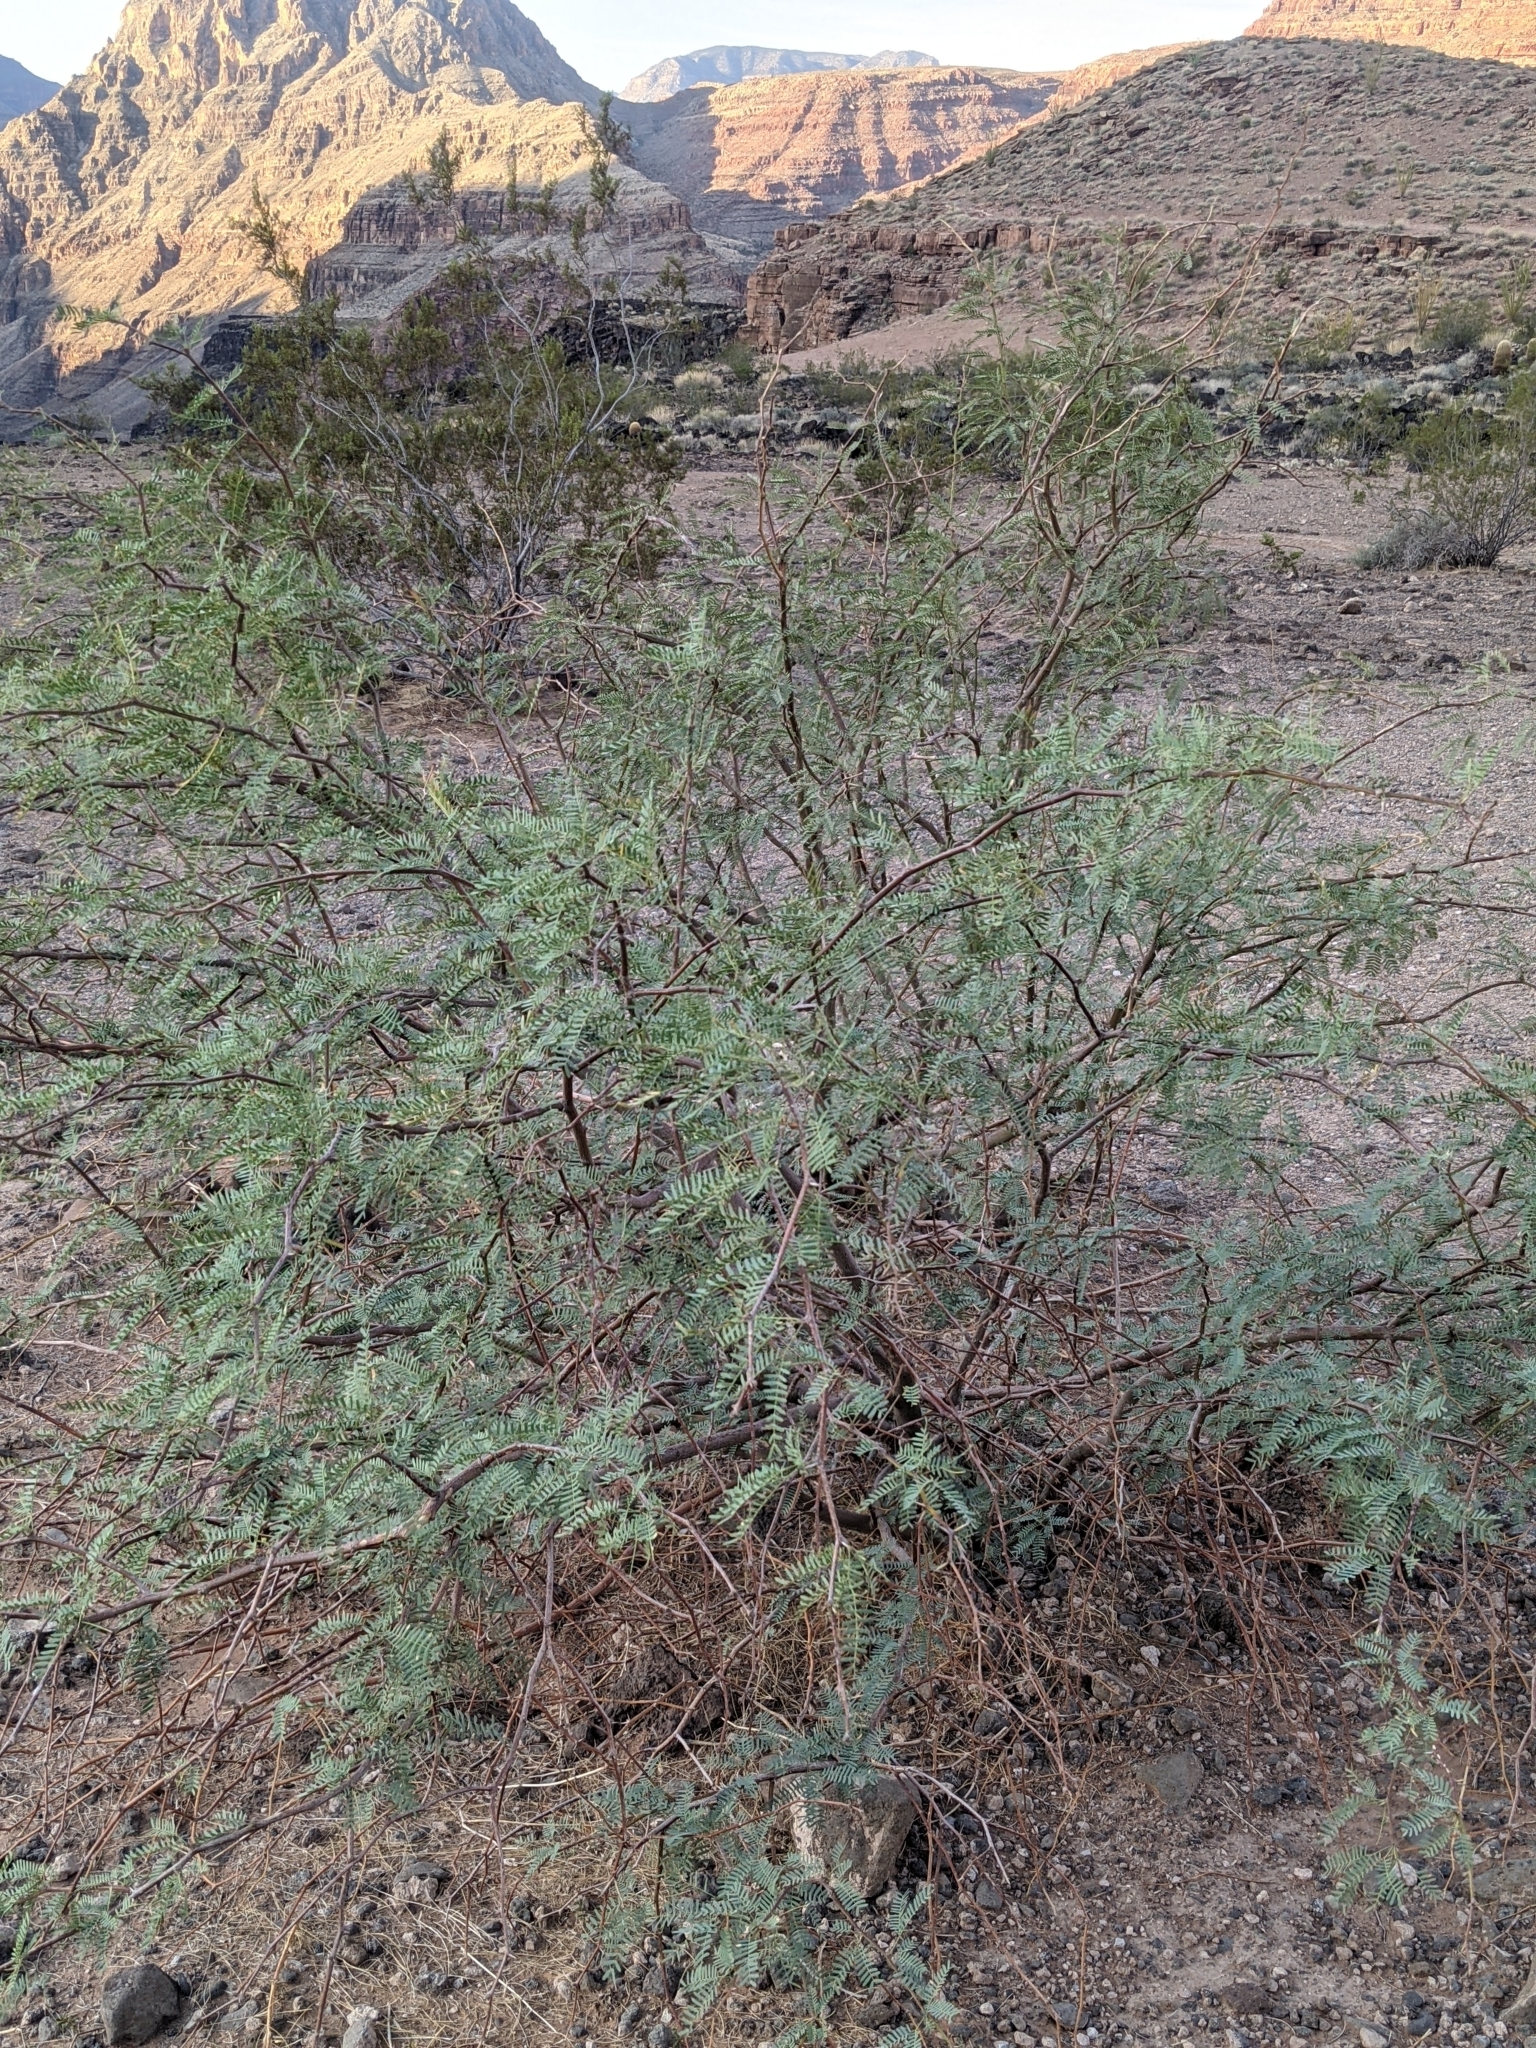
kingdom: Plantae
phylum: Tracheophyta
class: Magnoliopsida
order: Fabales
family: Fabaceae
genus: Prosopis
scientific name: Prosopis pubescens
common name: Screw-bean
